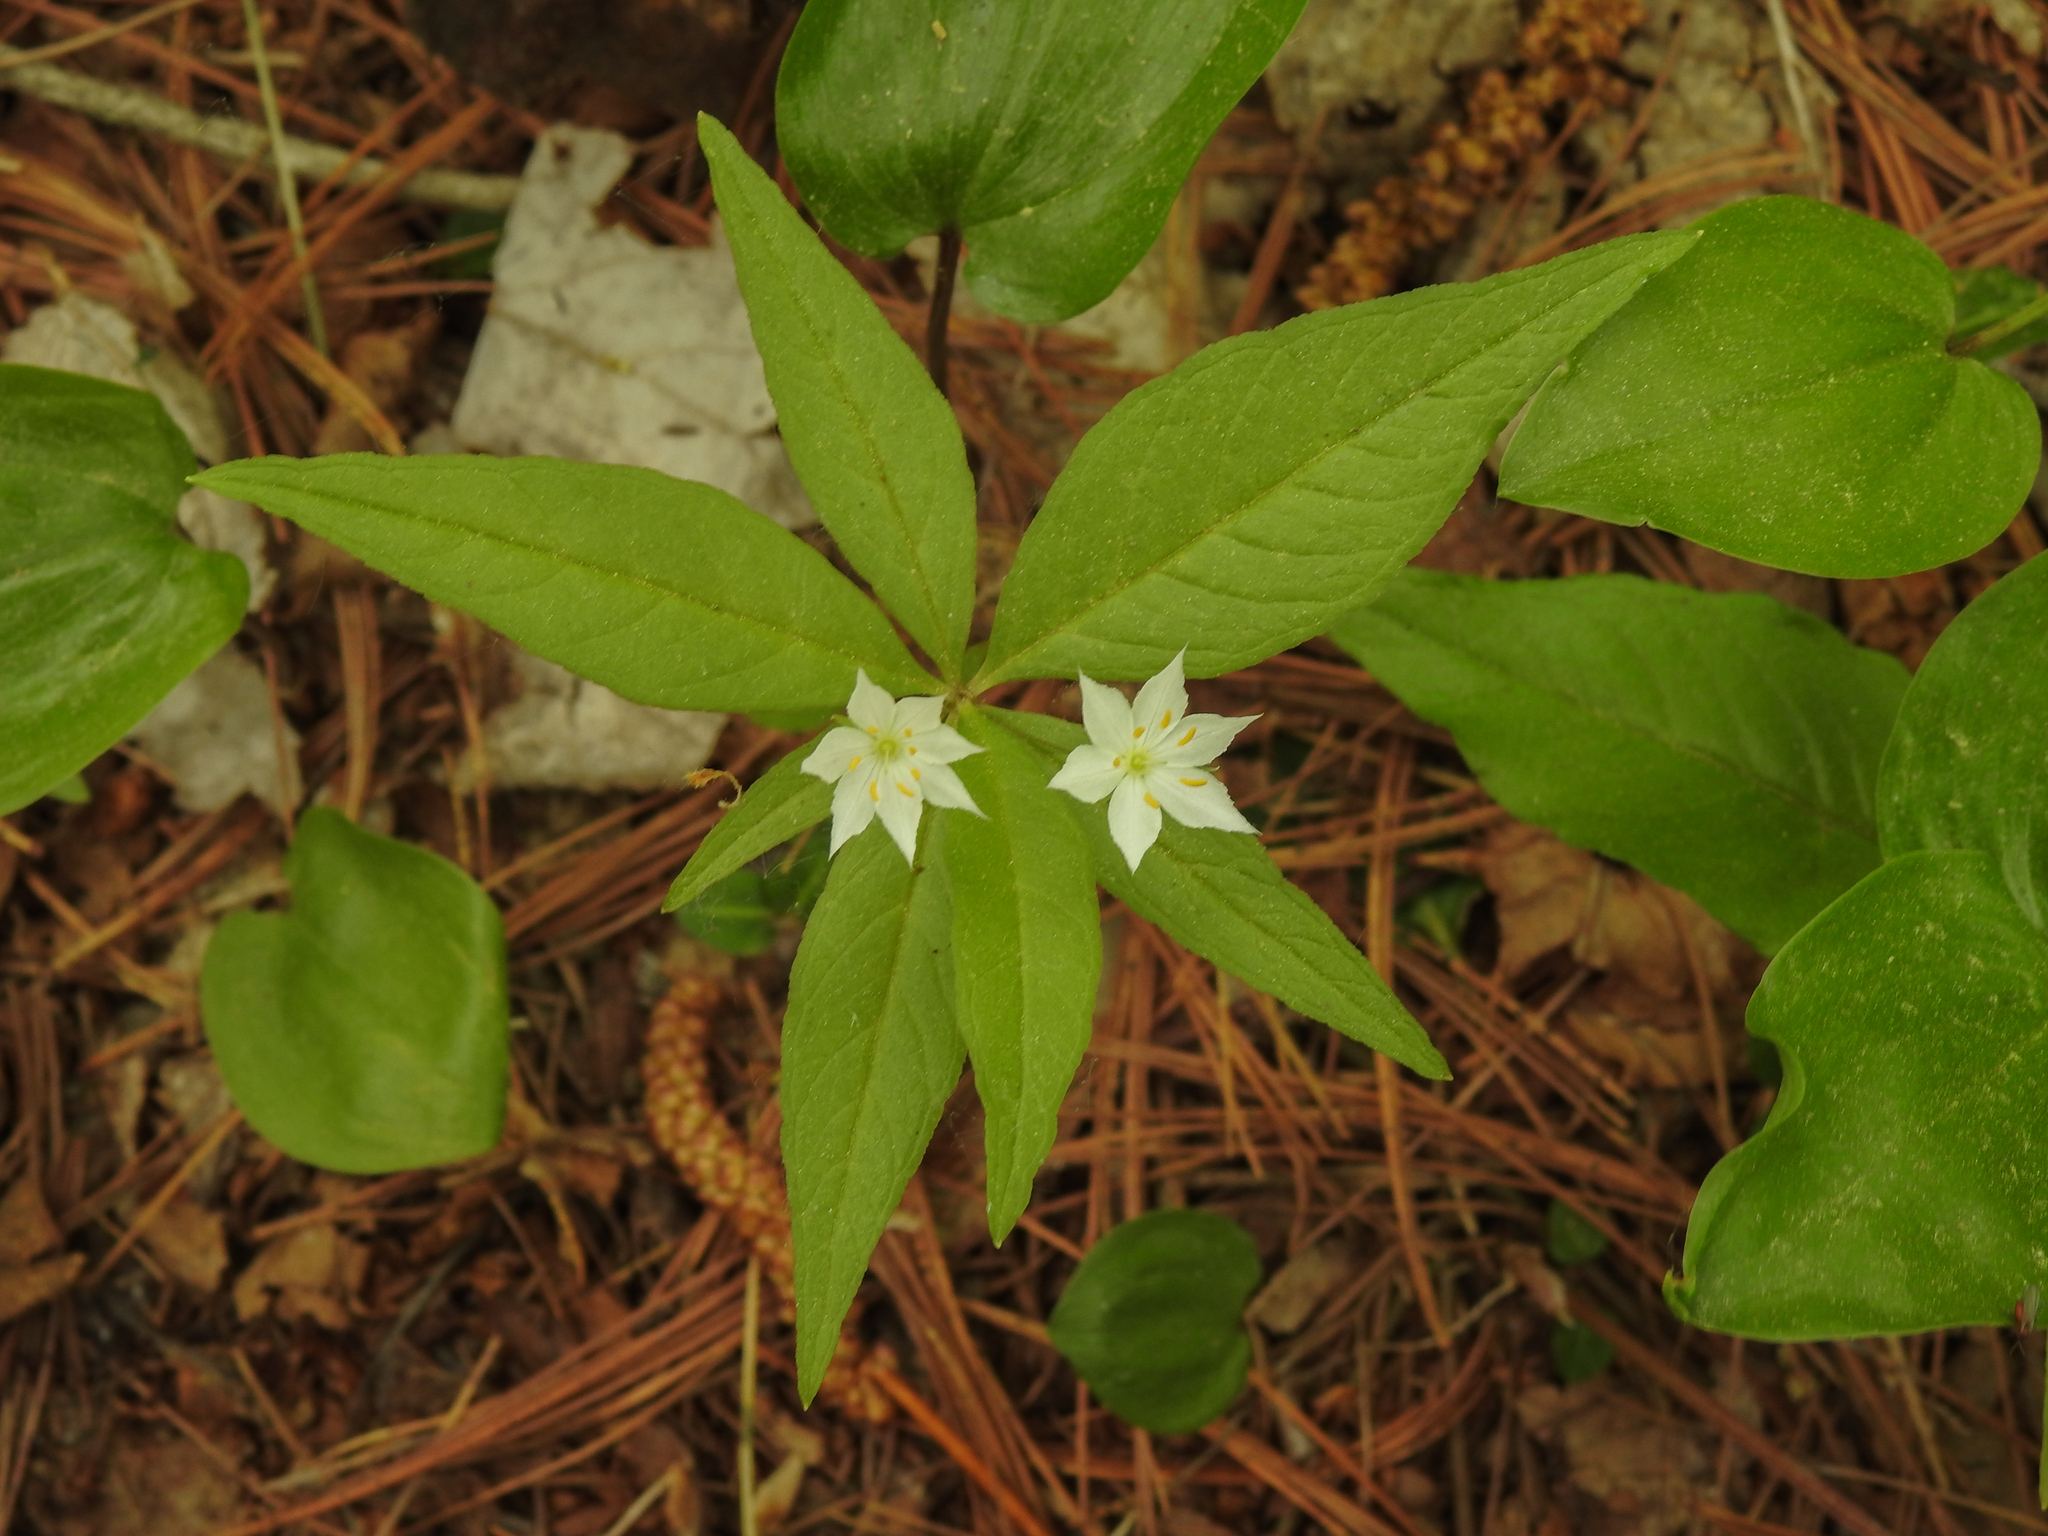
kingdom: Plantae
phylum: Tracheophyta
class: Magnoliopsida
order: Ericales
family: Primulaceae
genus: Lysimachia
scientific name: Lysimachia borealis
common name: American starflower
